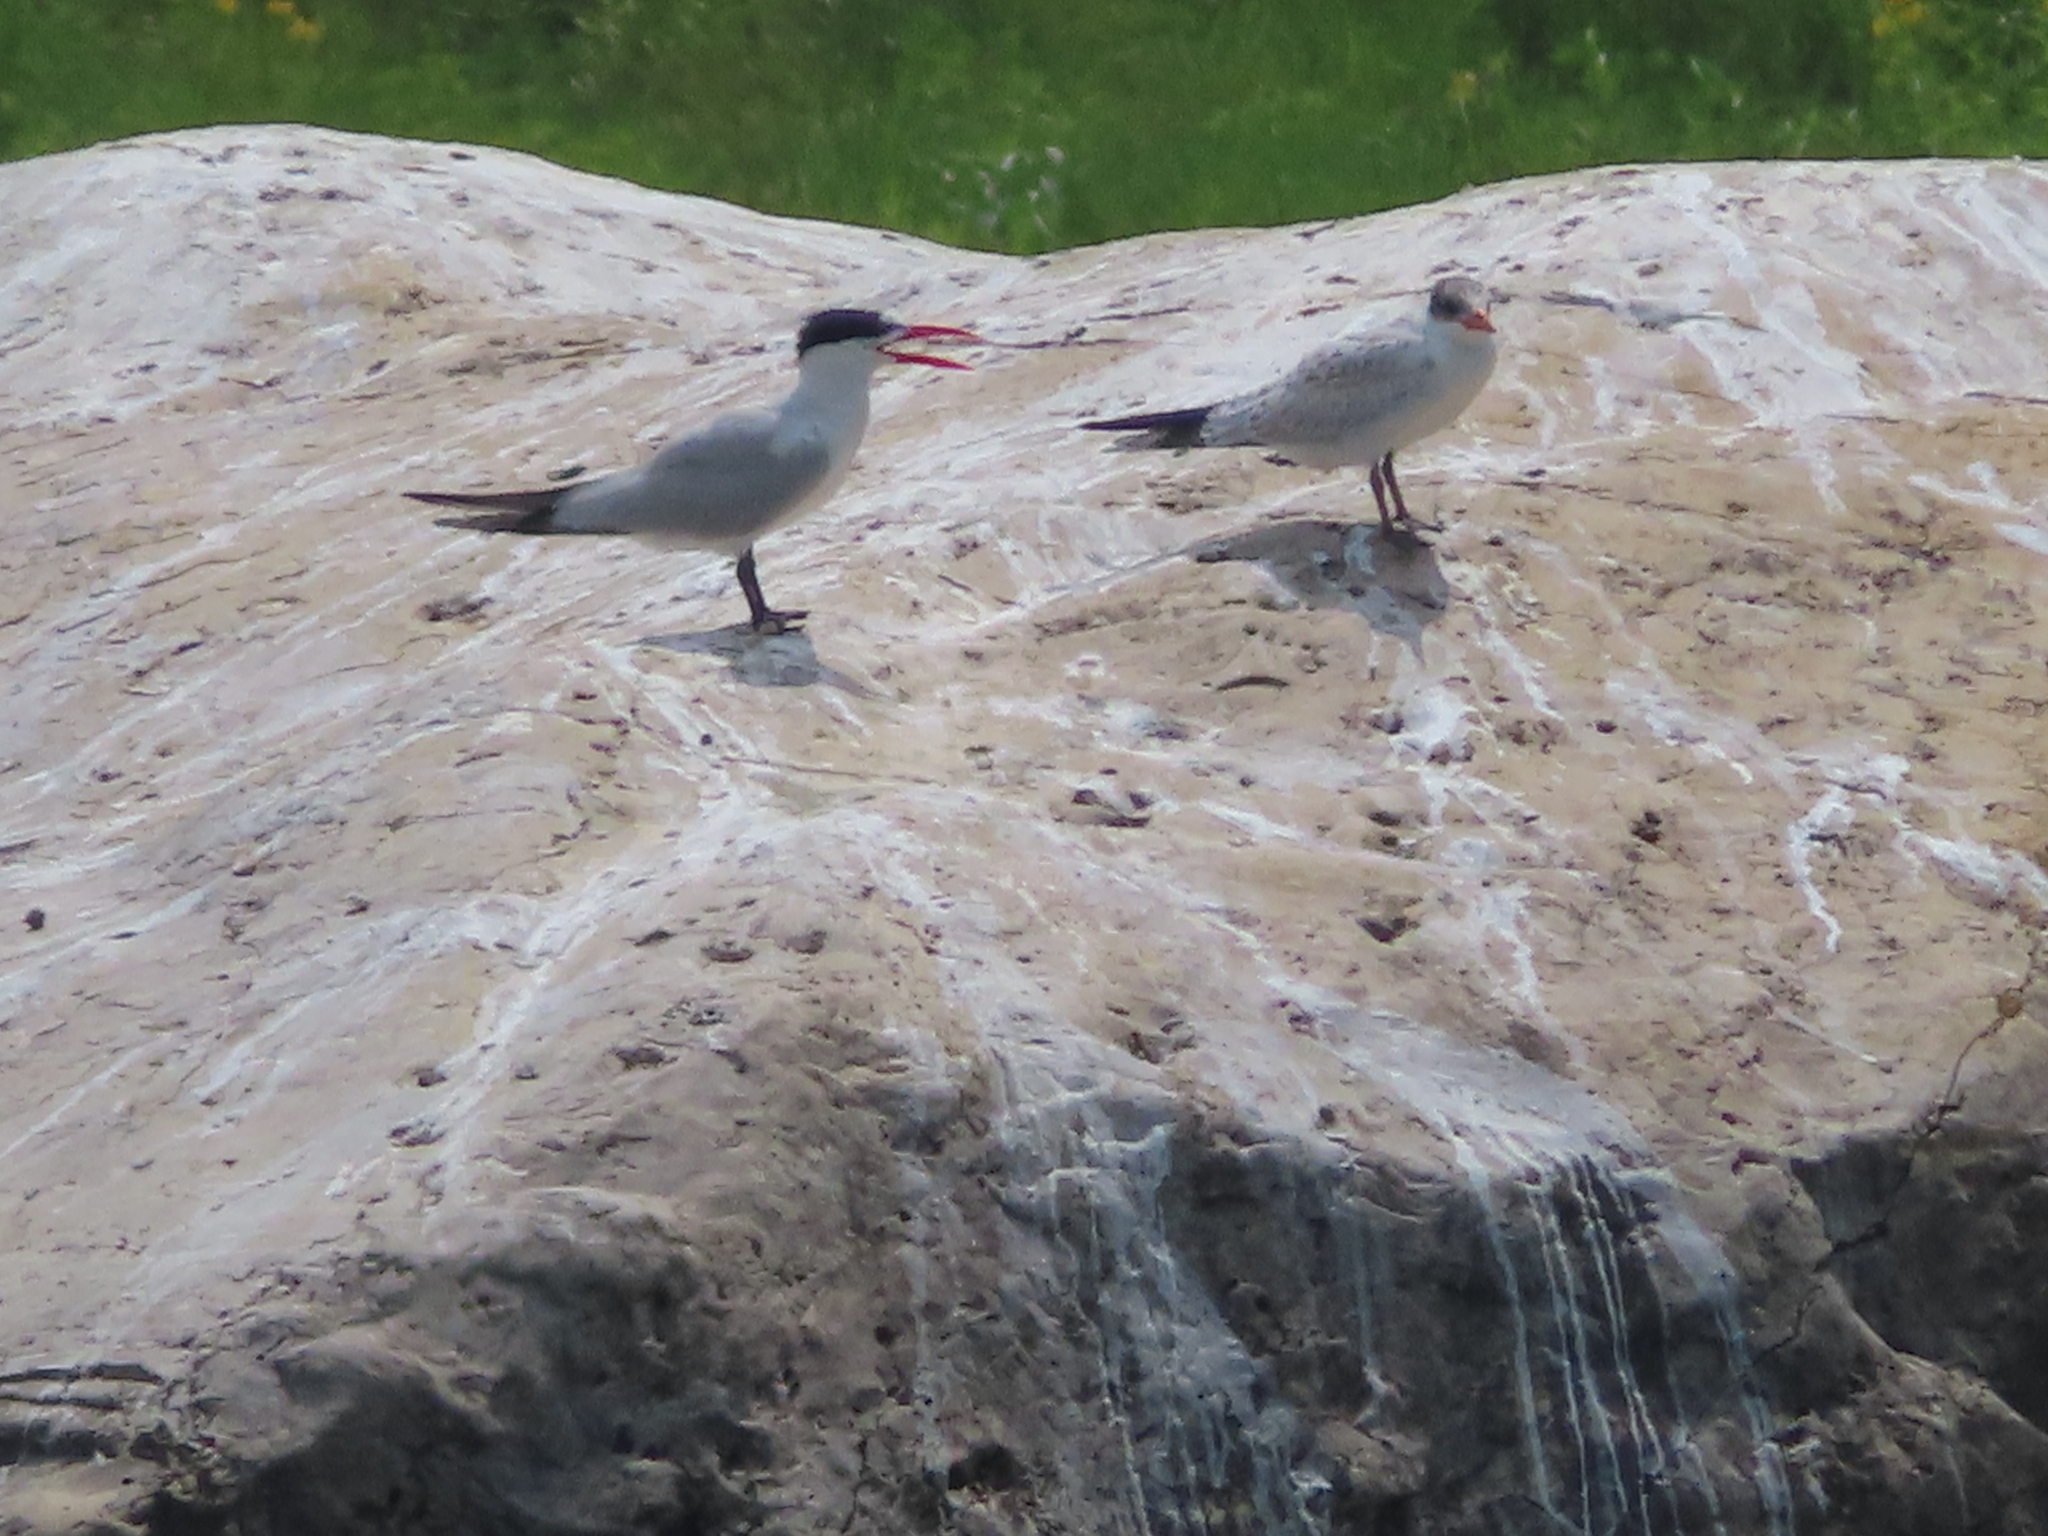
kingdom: Animalia
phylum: Chordata
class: Aves
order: Charadriiformes
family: Laridae
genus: Hydroprogne
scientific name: Hydroprogne caspia
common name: Caspian tern
